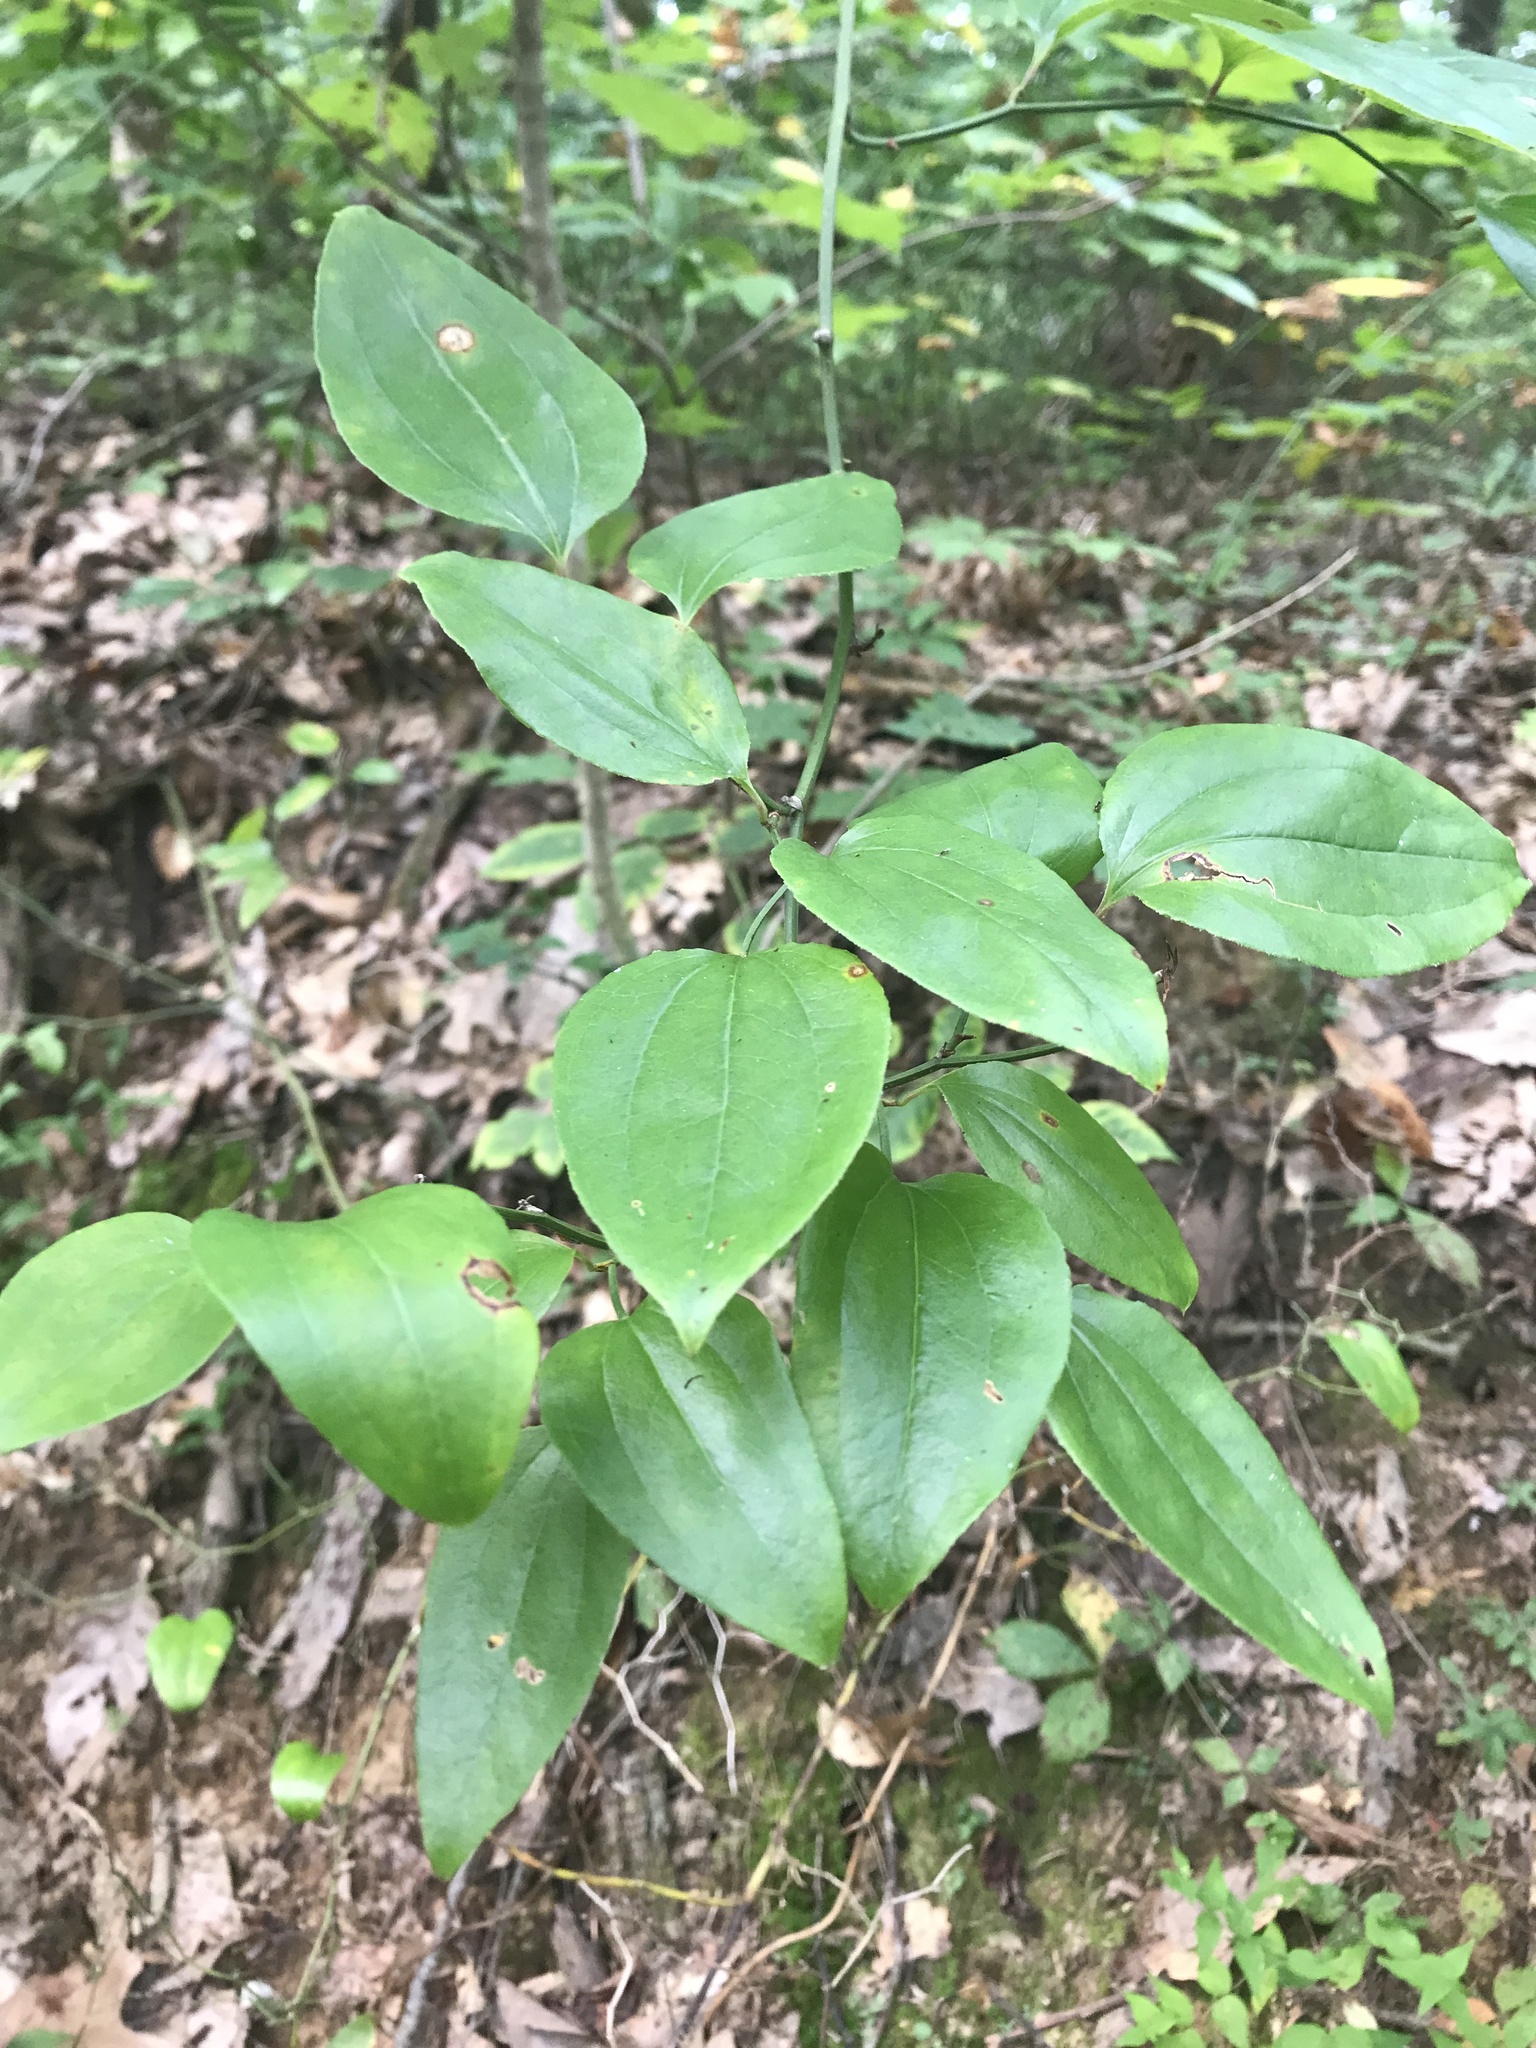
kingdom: Plantae
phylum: Tracheophyta
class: Liliopsida
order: Liliales
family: Smilacaceae
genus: Smilax
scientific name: Smilax rotundifolia
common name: Bullbriar
